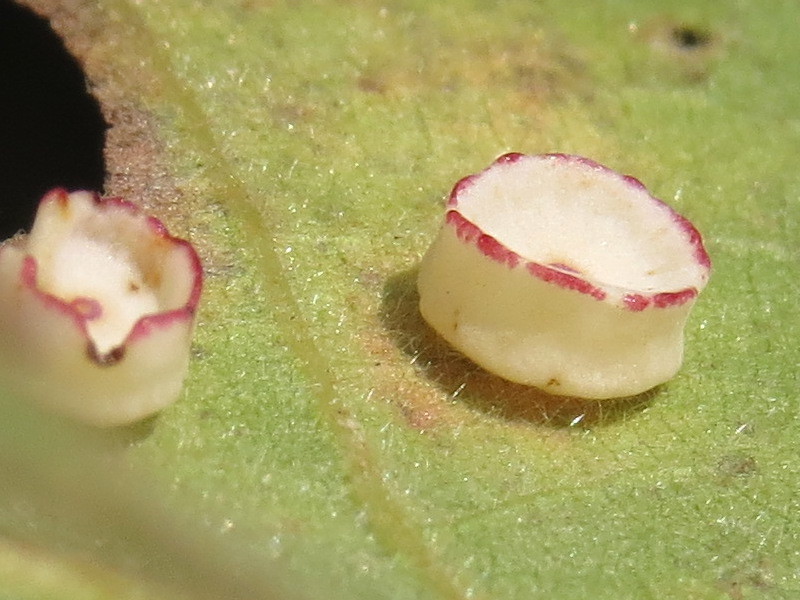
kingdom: Animalia
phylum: Arthropoda
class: Insecta
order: Hymenoptera
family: Cynipidae
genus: Phylloteras
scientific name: Phylloteras
